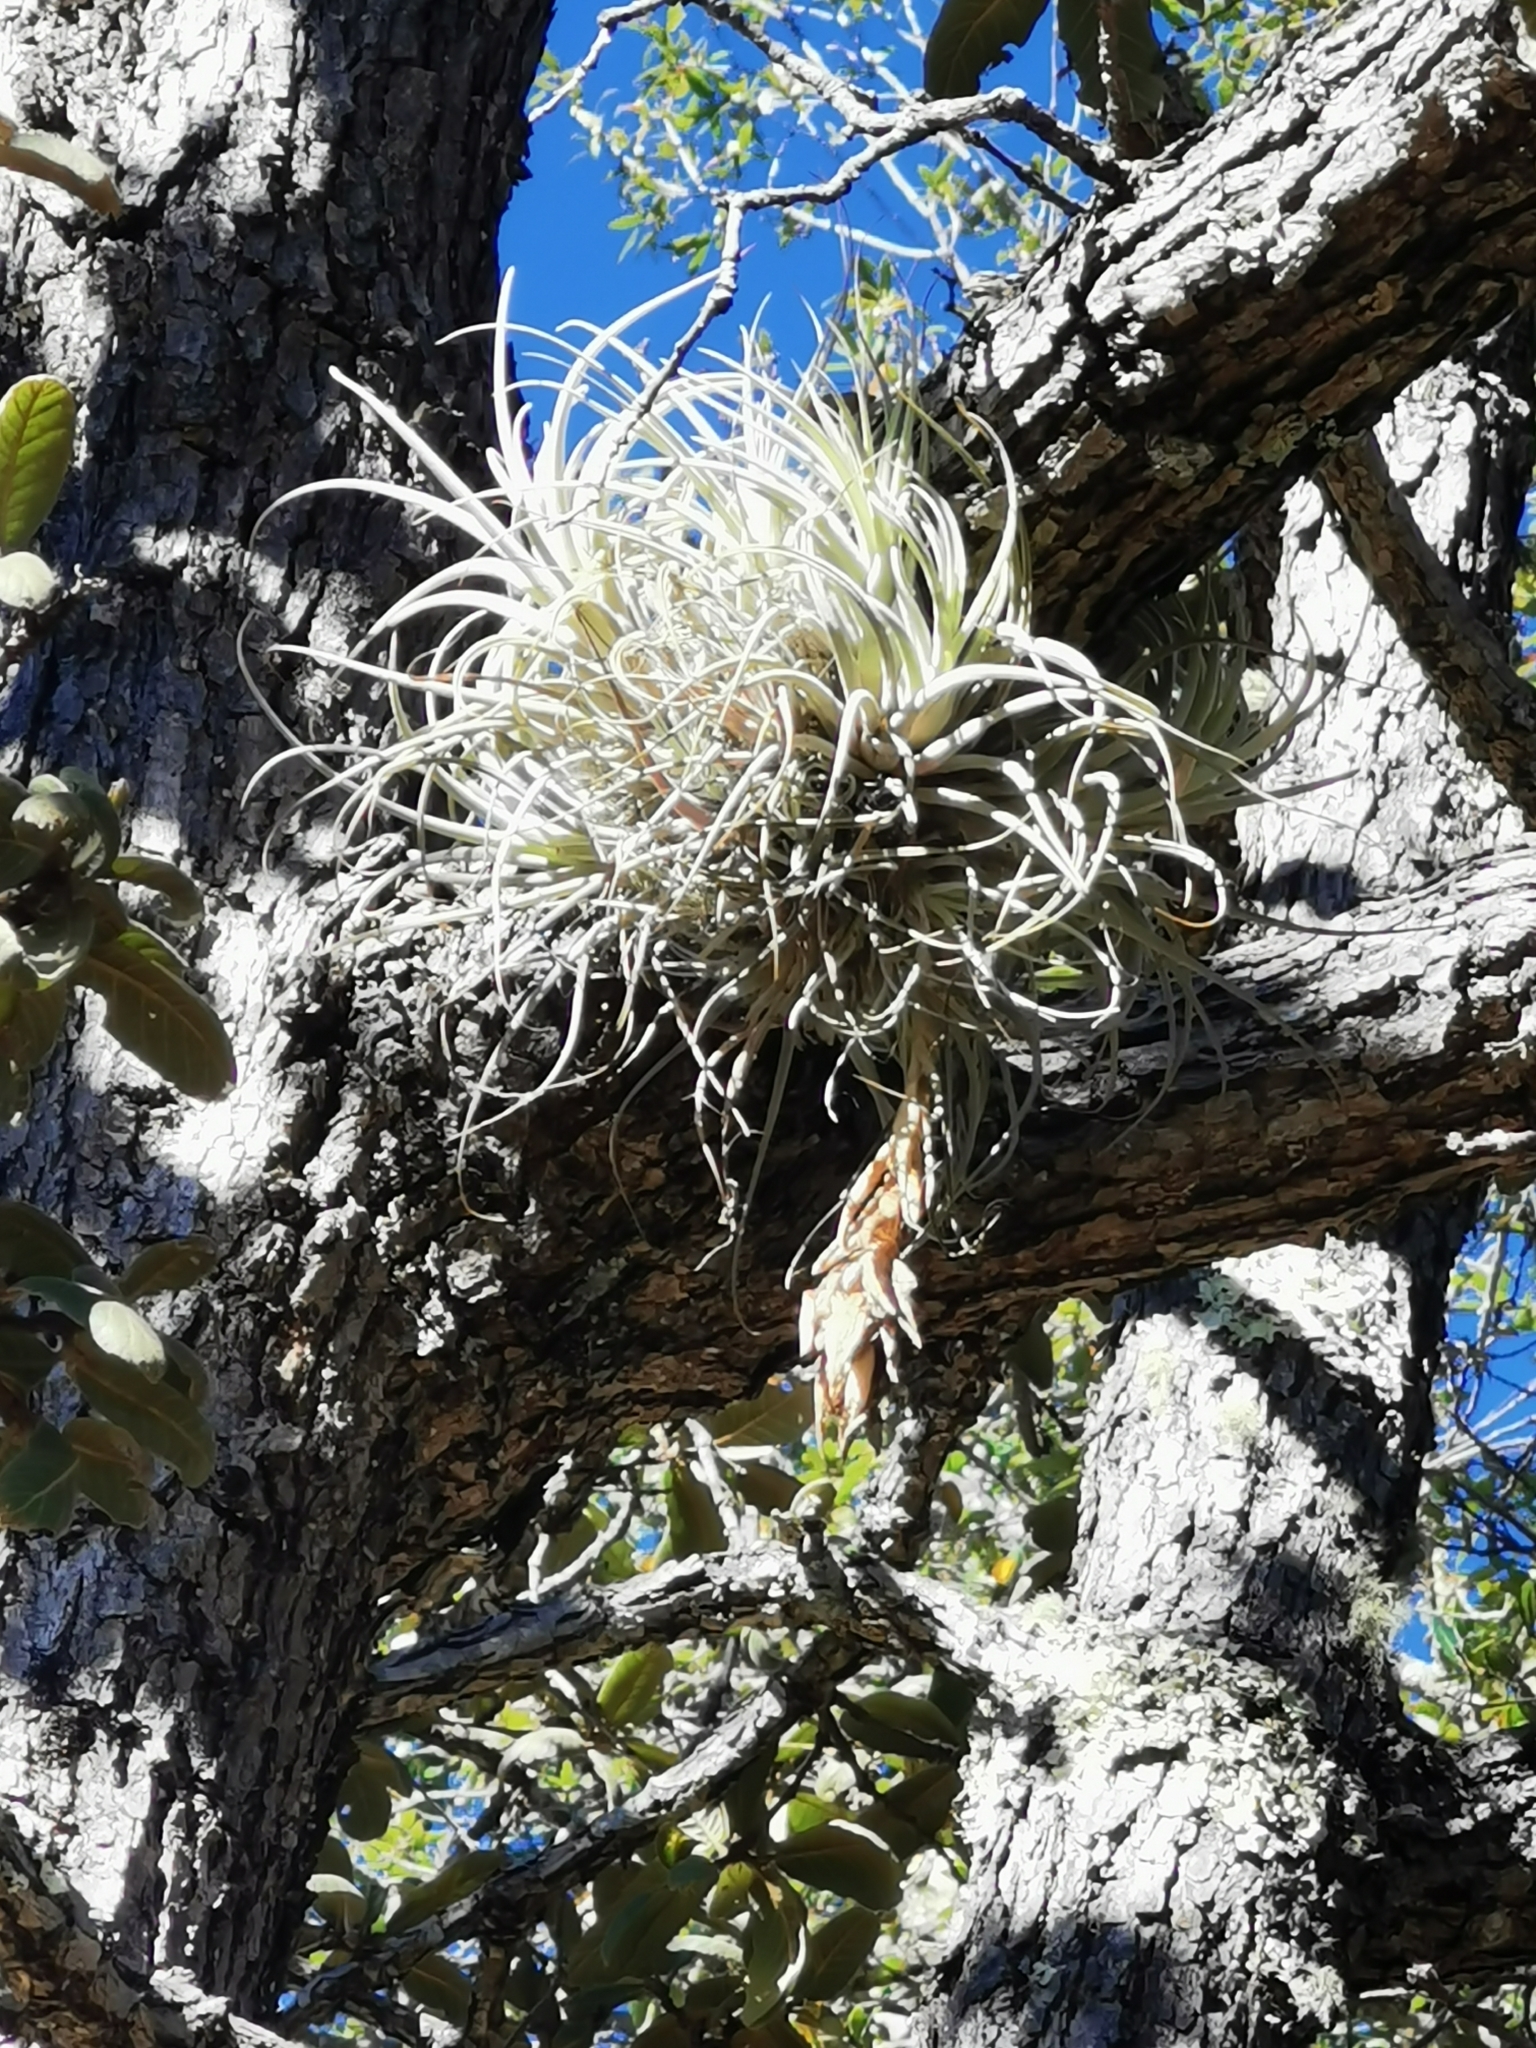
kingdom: Plantae
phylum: Tracheophyta
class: Liliopsida
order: Poales
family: Bromeliaceae
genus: Tillandsia
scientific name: Tillandsia erubescens
